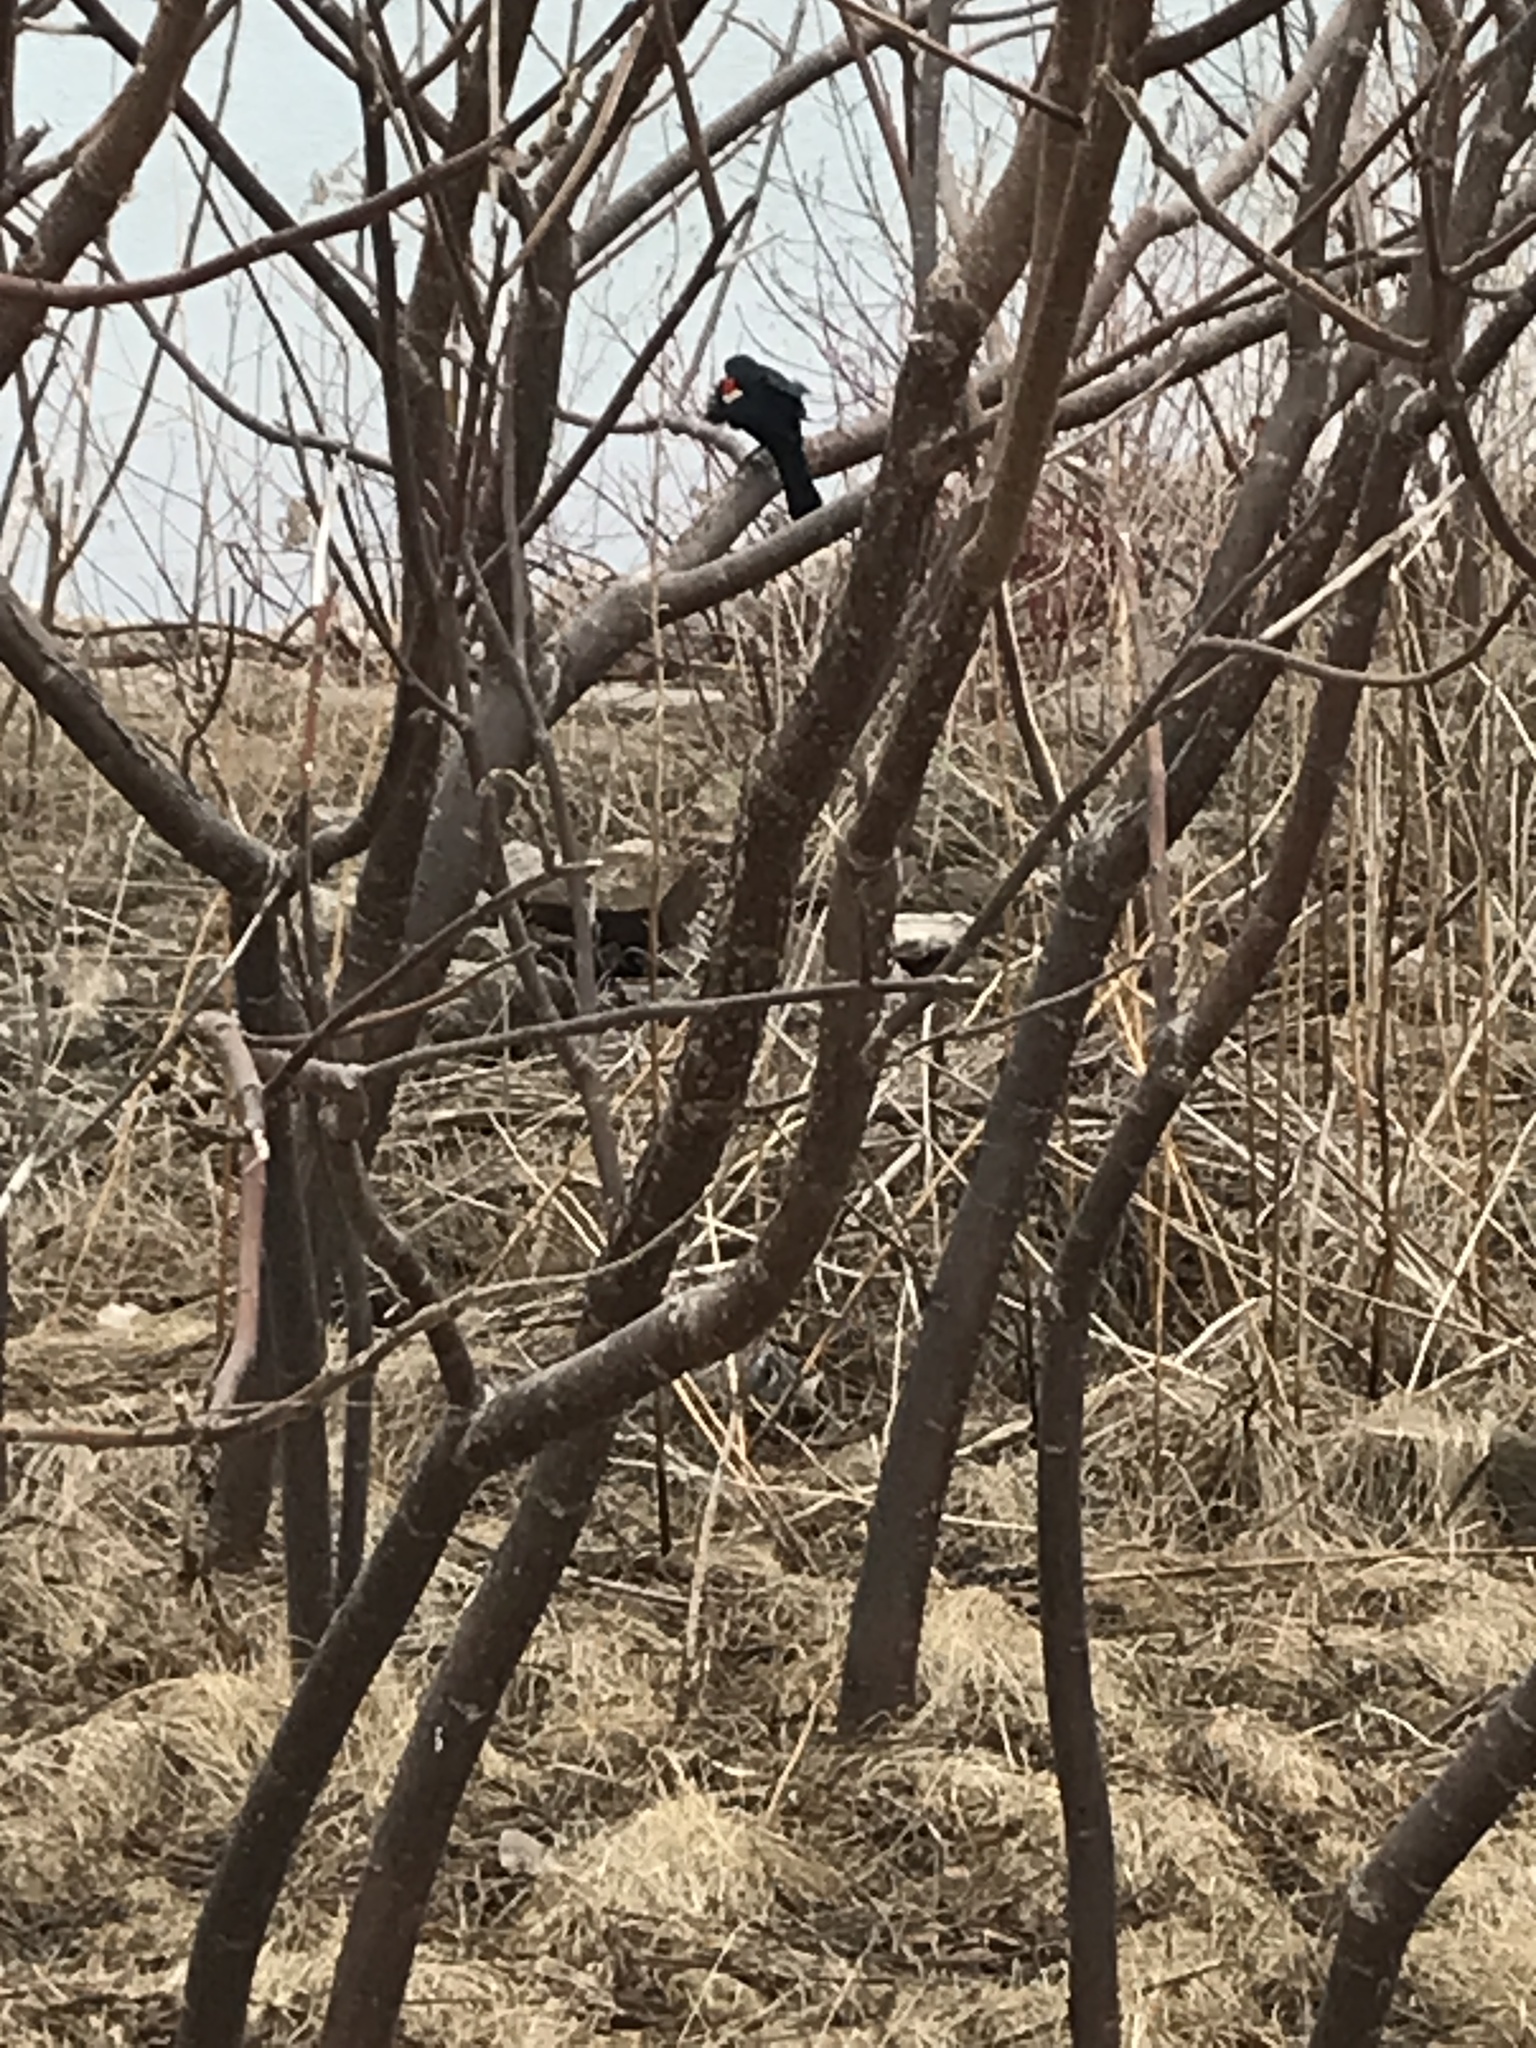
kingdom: Animalia
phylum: Chordata
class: Aves
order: Passeriformes
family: Icteridae
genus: Agelaius
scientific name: Agelaius phoeniceus
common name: Red-winged blackbird
